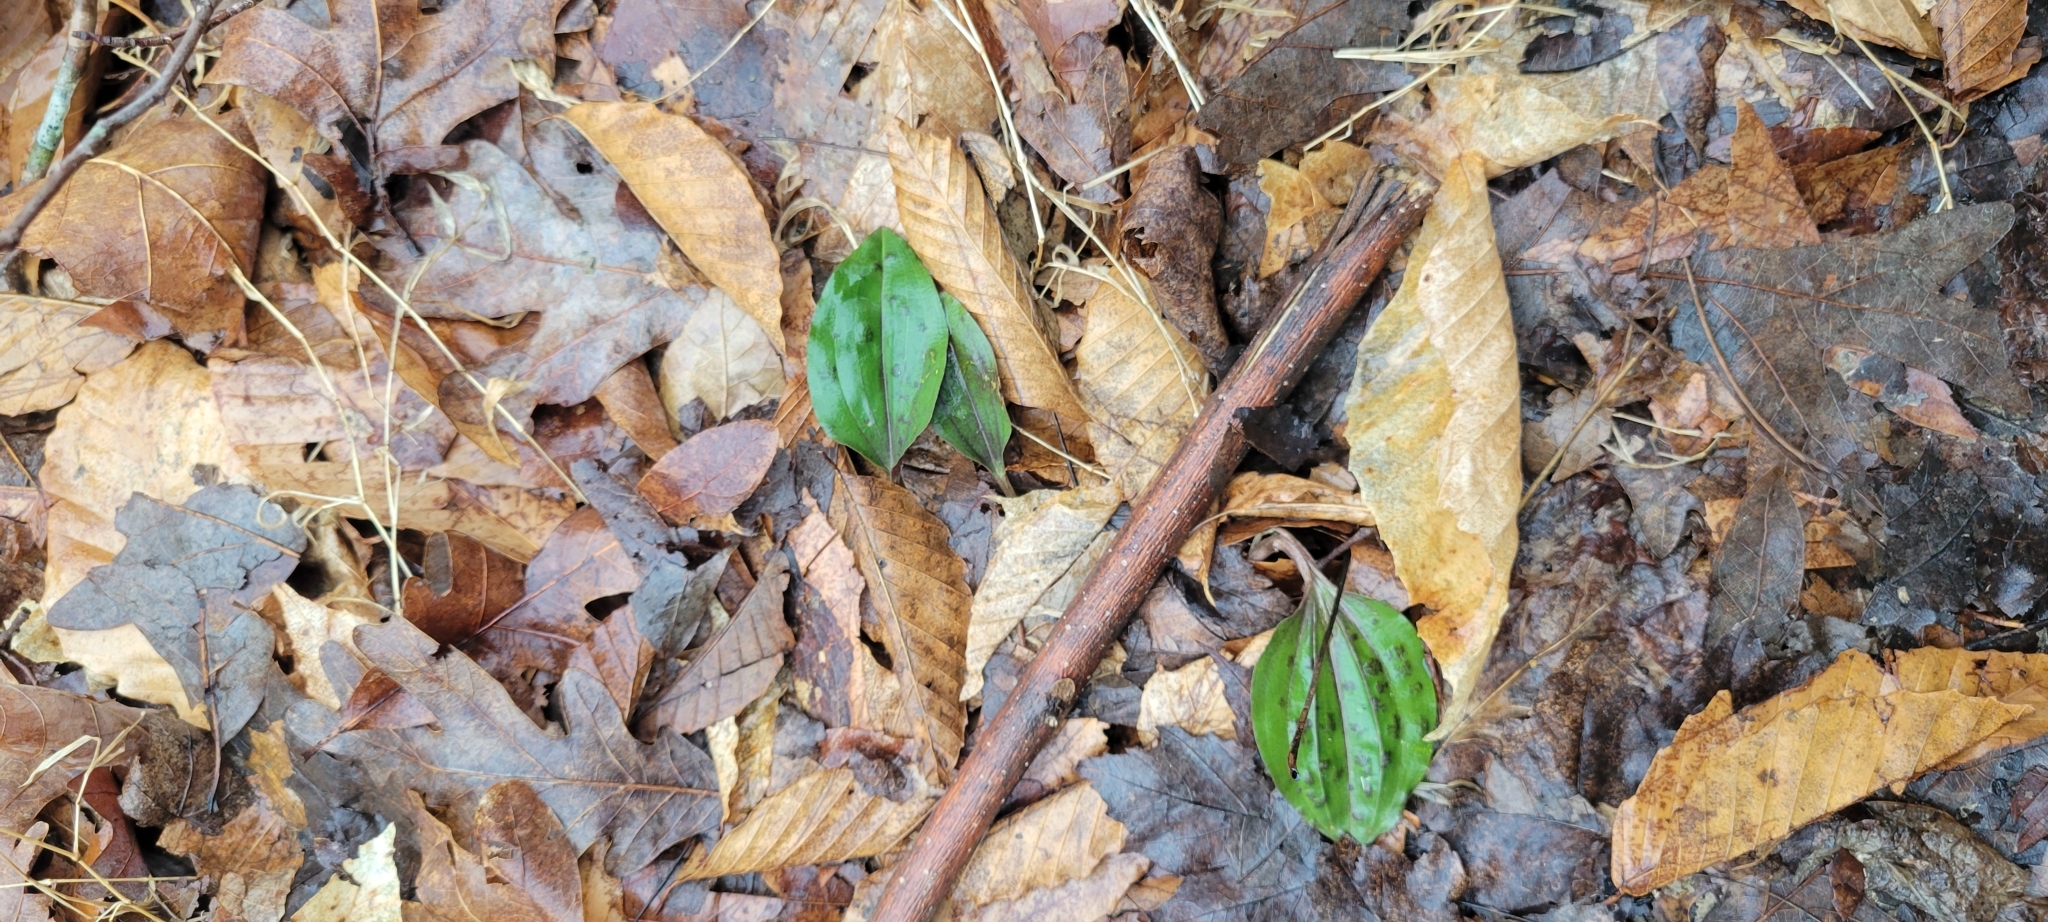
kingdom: Plantae
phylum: Tracheophyta
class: Liliopsida
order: Asparagales
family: Orchidaceae
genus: Tipularia
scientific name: Tipularia discolor
